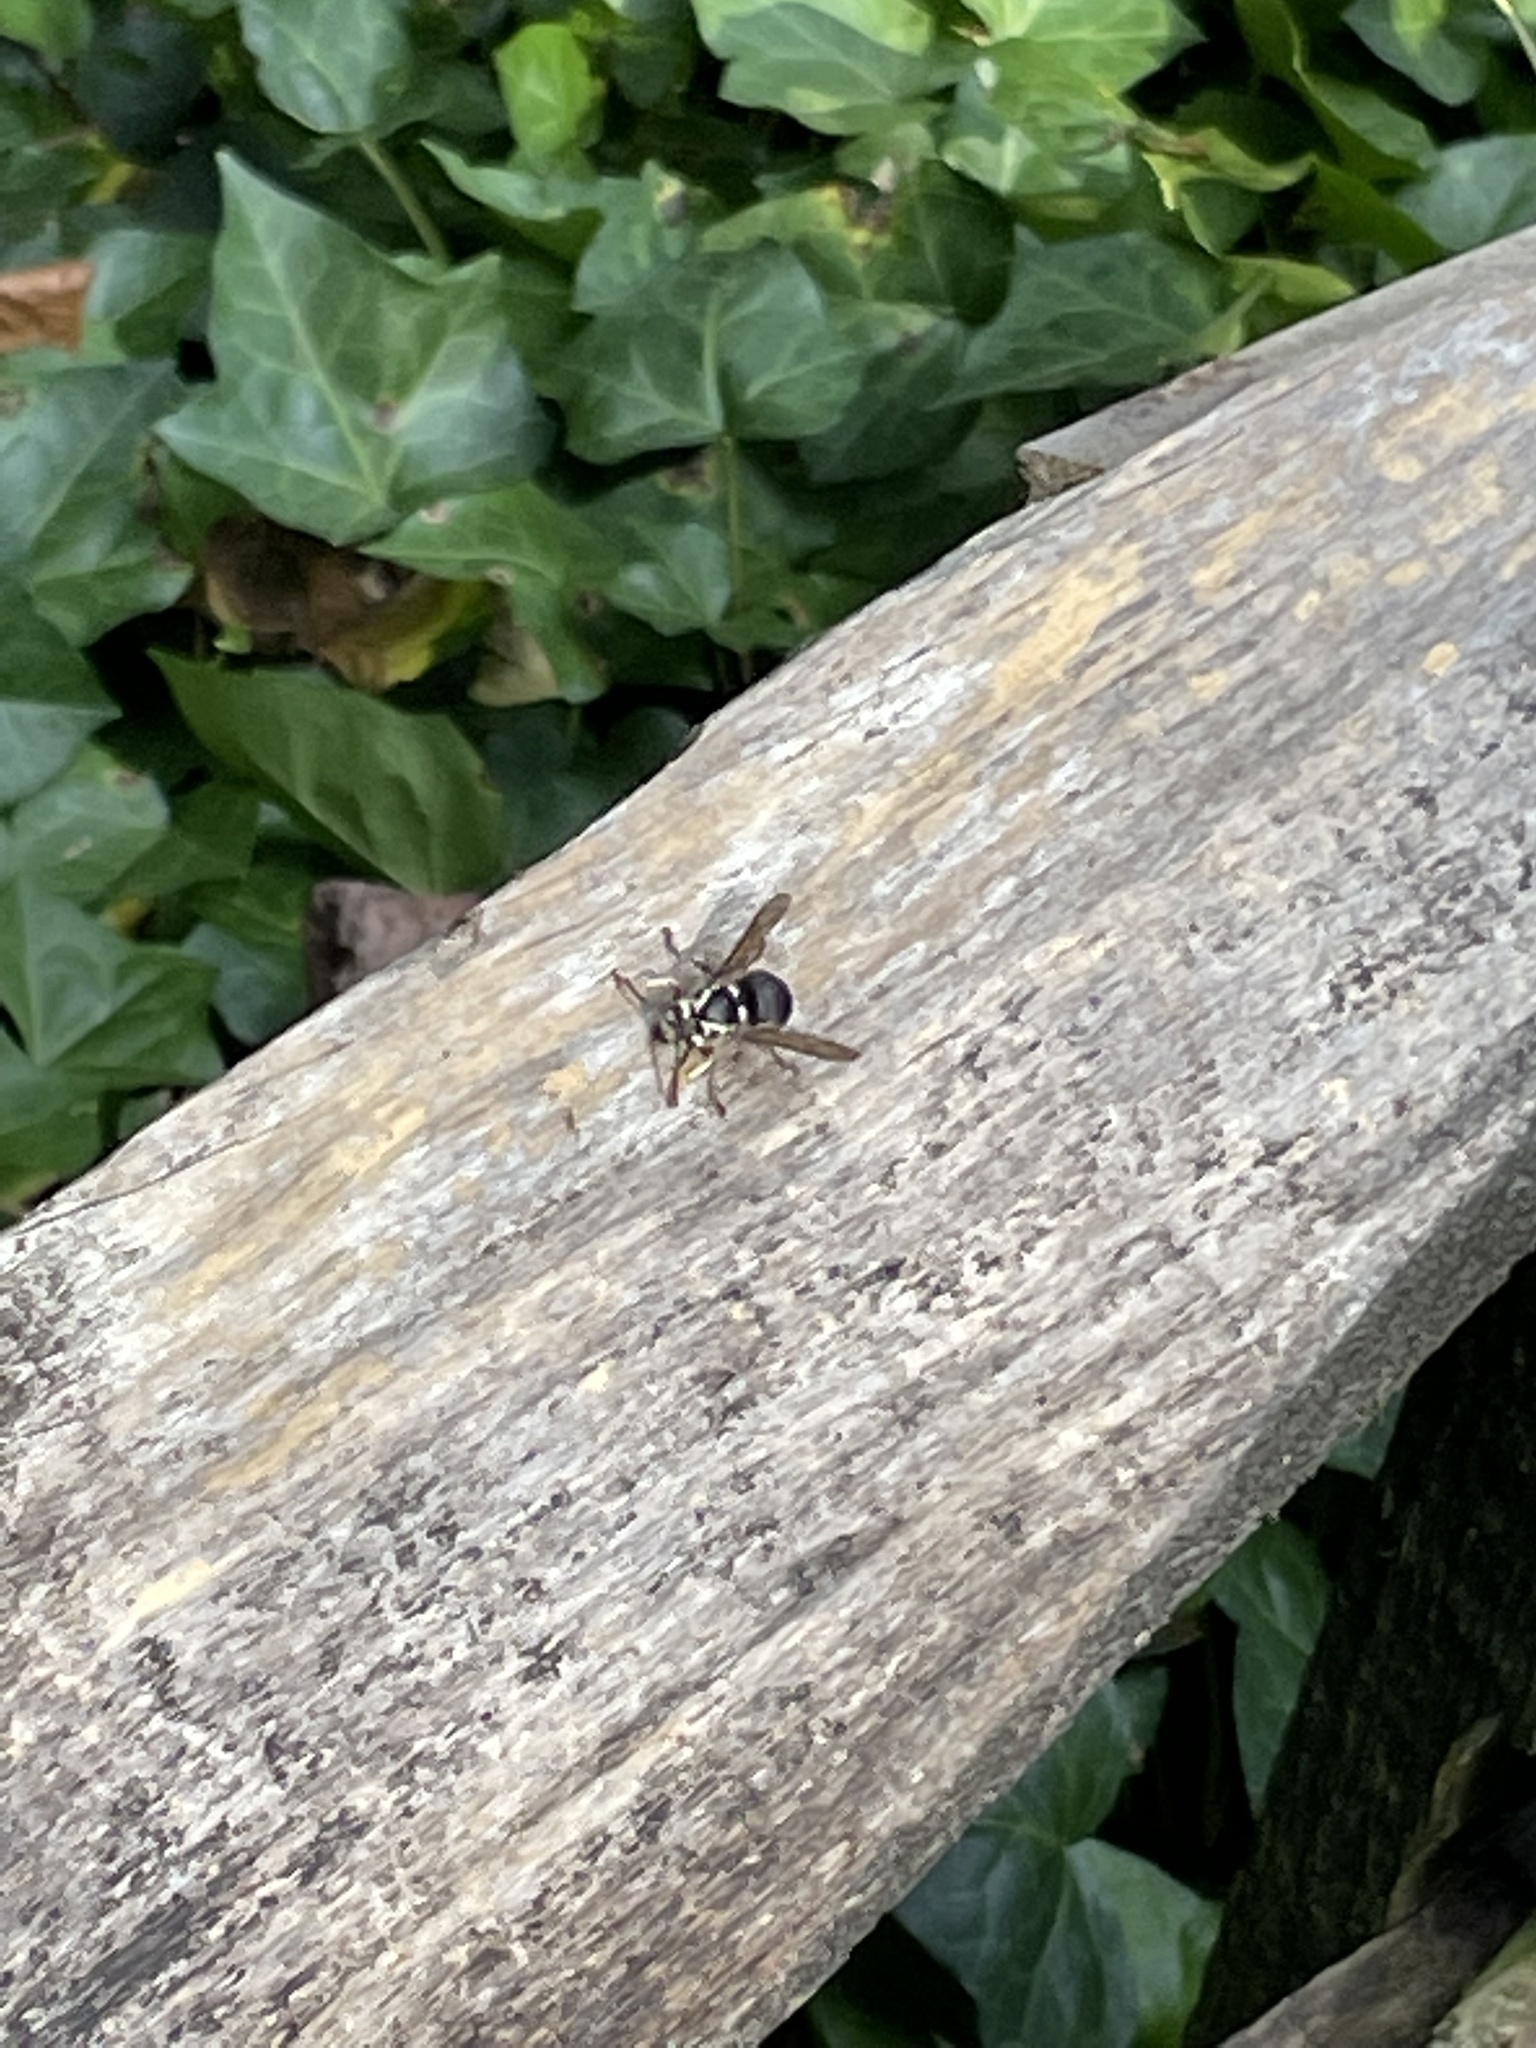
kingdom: Animalia
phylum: Arthropoda
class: Insecta
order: Hymenoptera
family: Vespidae
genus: Dolichovespula
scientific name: Dolichovespula maculata
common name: Bald-faced hornet
